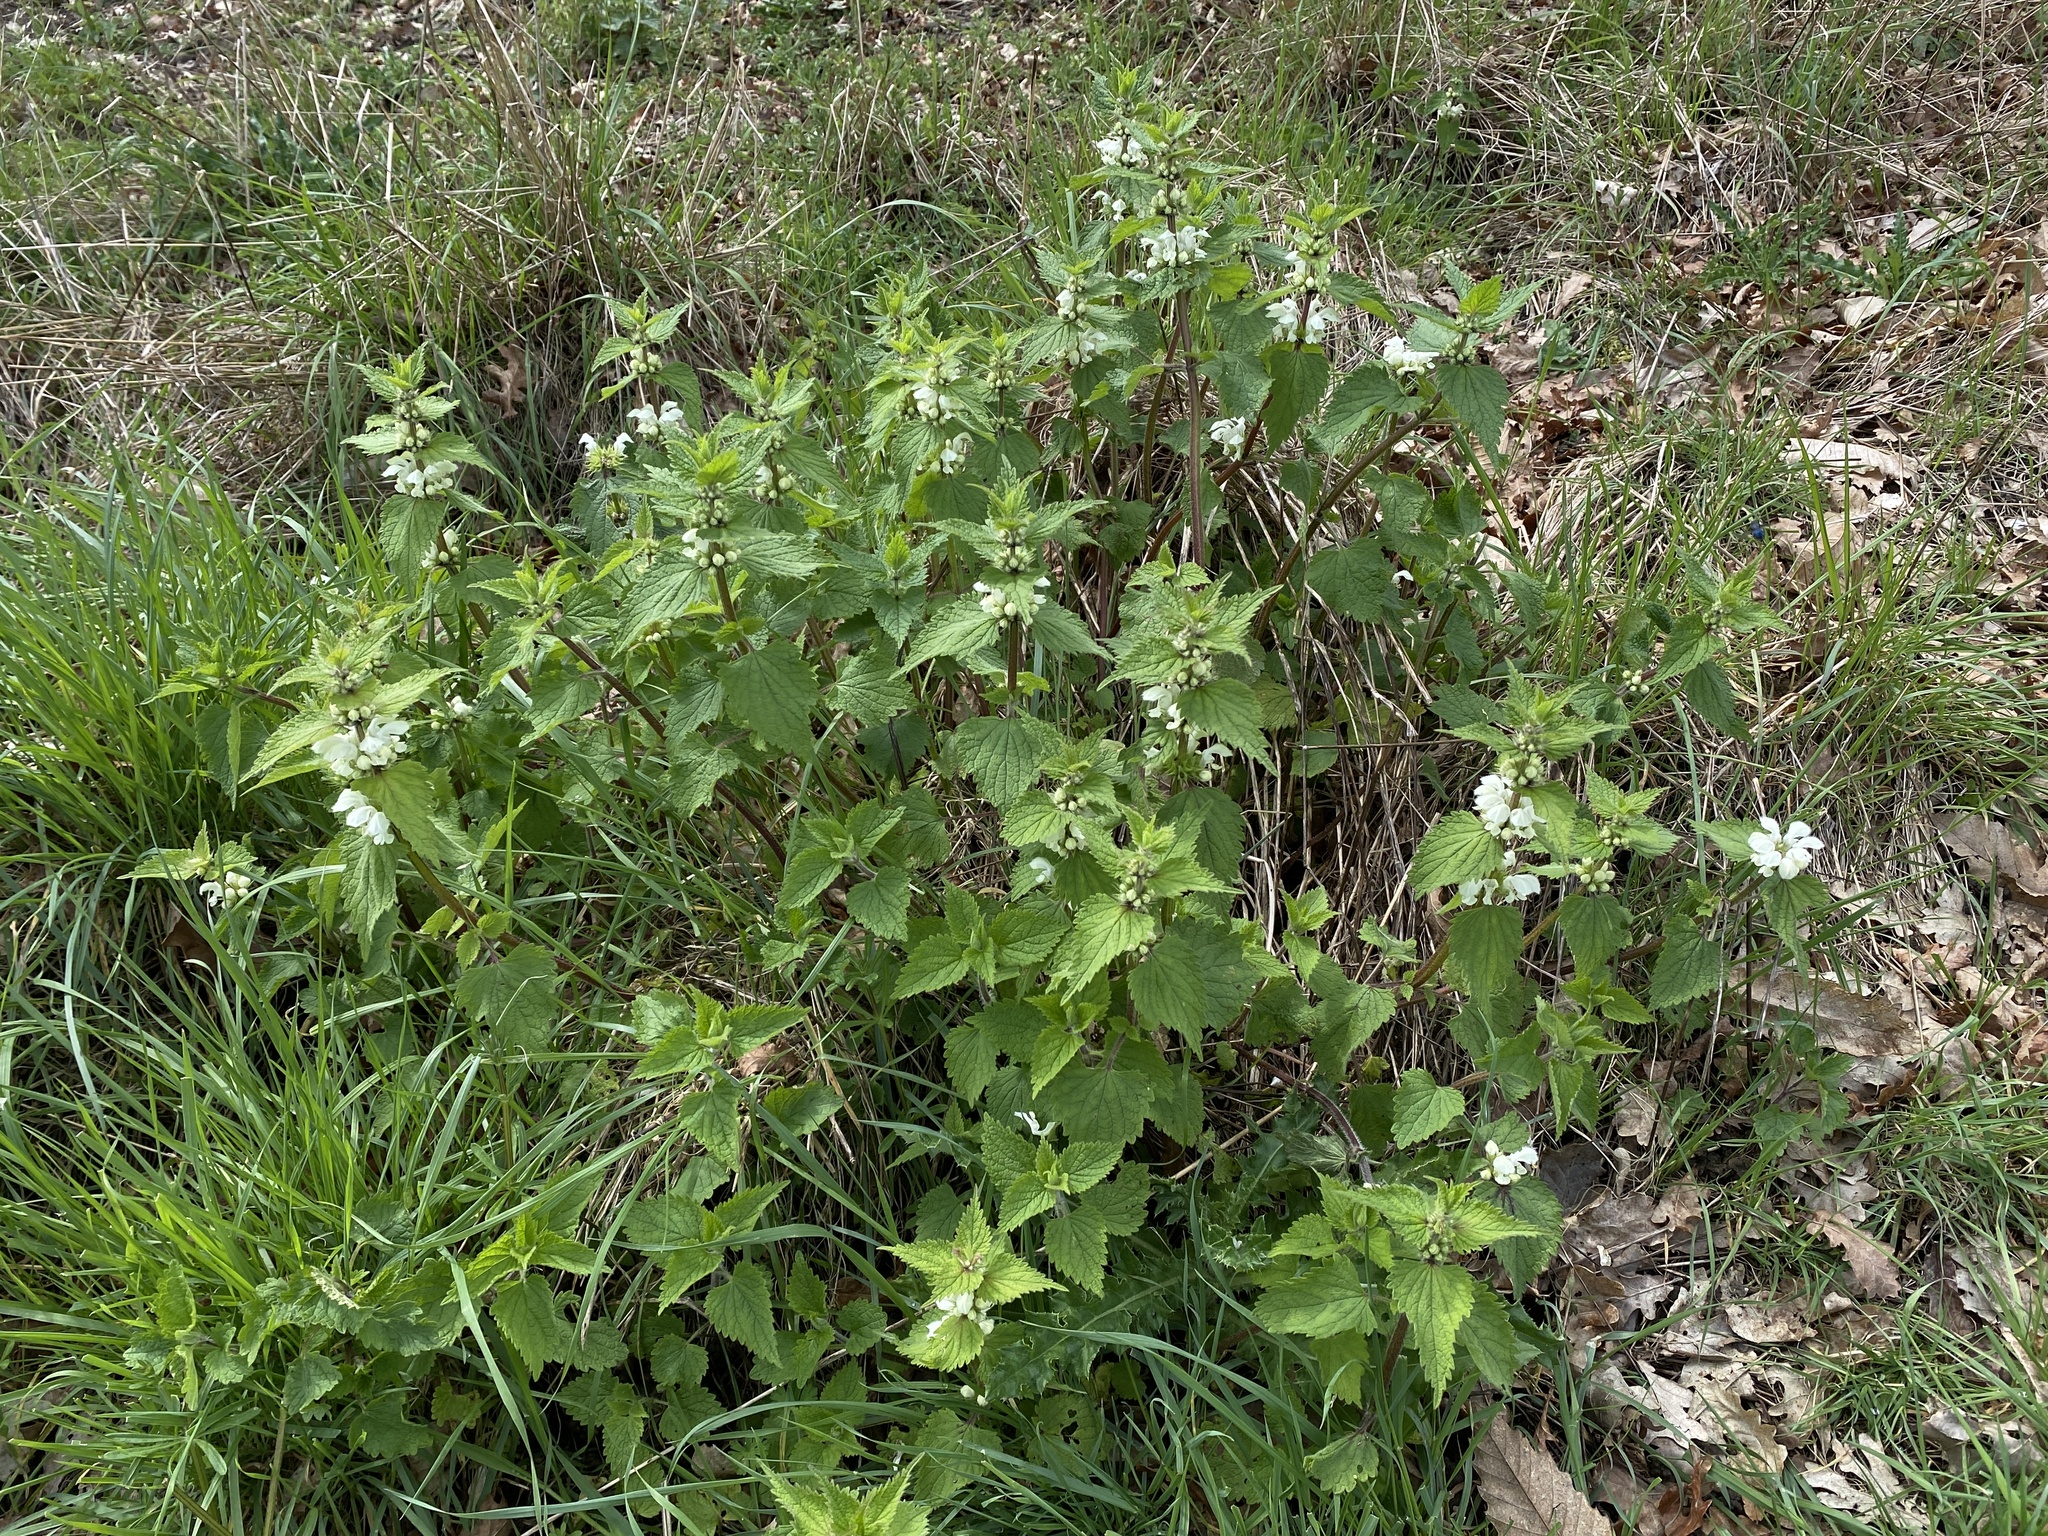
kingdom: Plantae
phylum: Tracheophyta
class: Magnoliopsida
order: Lamiales
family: Lamiaceae
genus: Lamium
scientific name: Lamium album
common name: White dead-nettle
